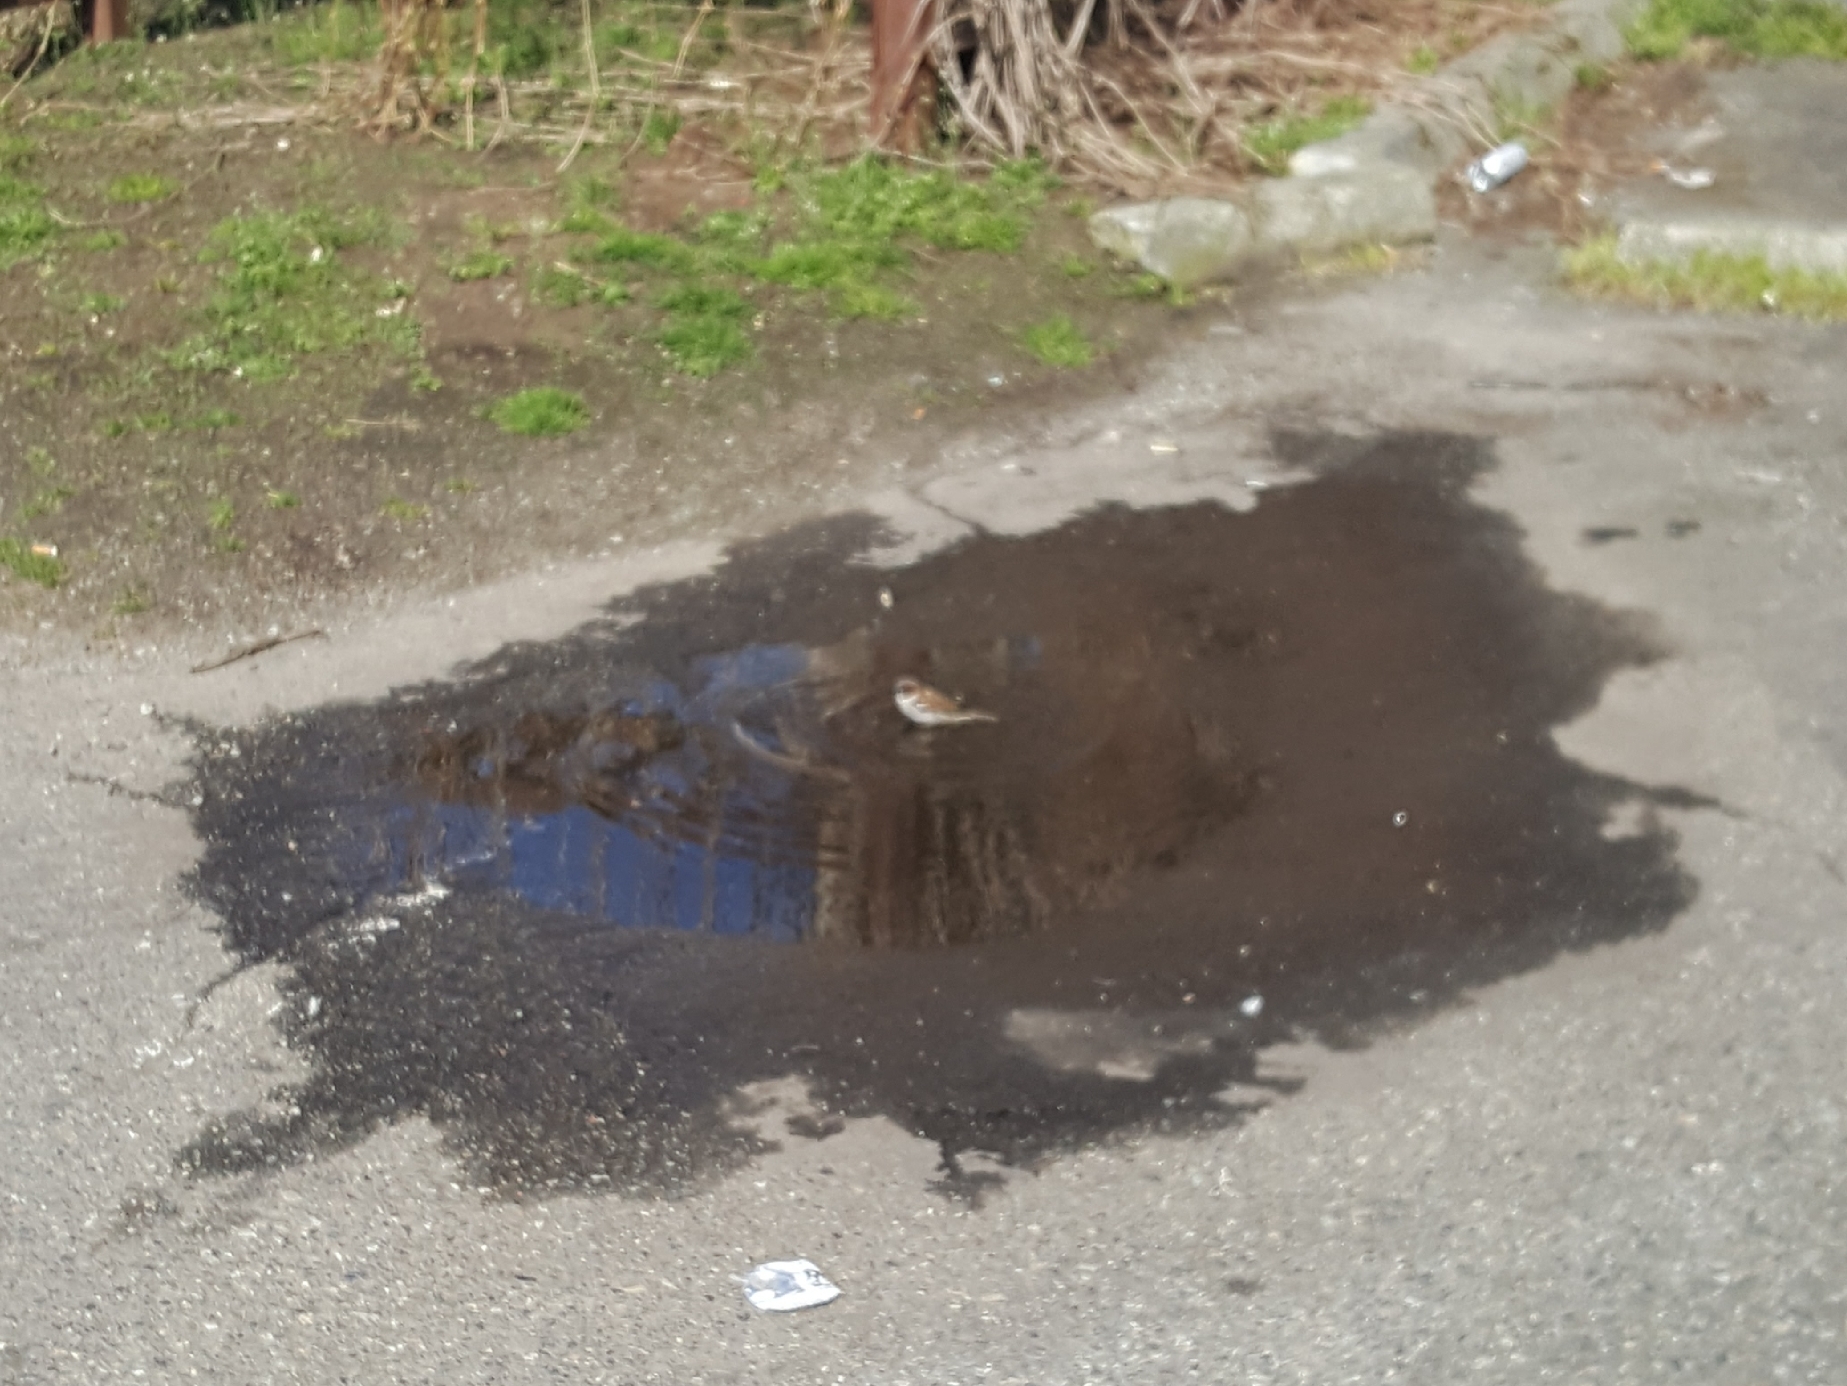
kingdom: Animalia
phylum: Chordata
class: Aves
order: Passeriformes
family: Passeridae
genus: Passer
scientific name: Passer domesticus
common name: House sparrow
